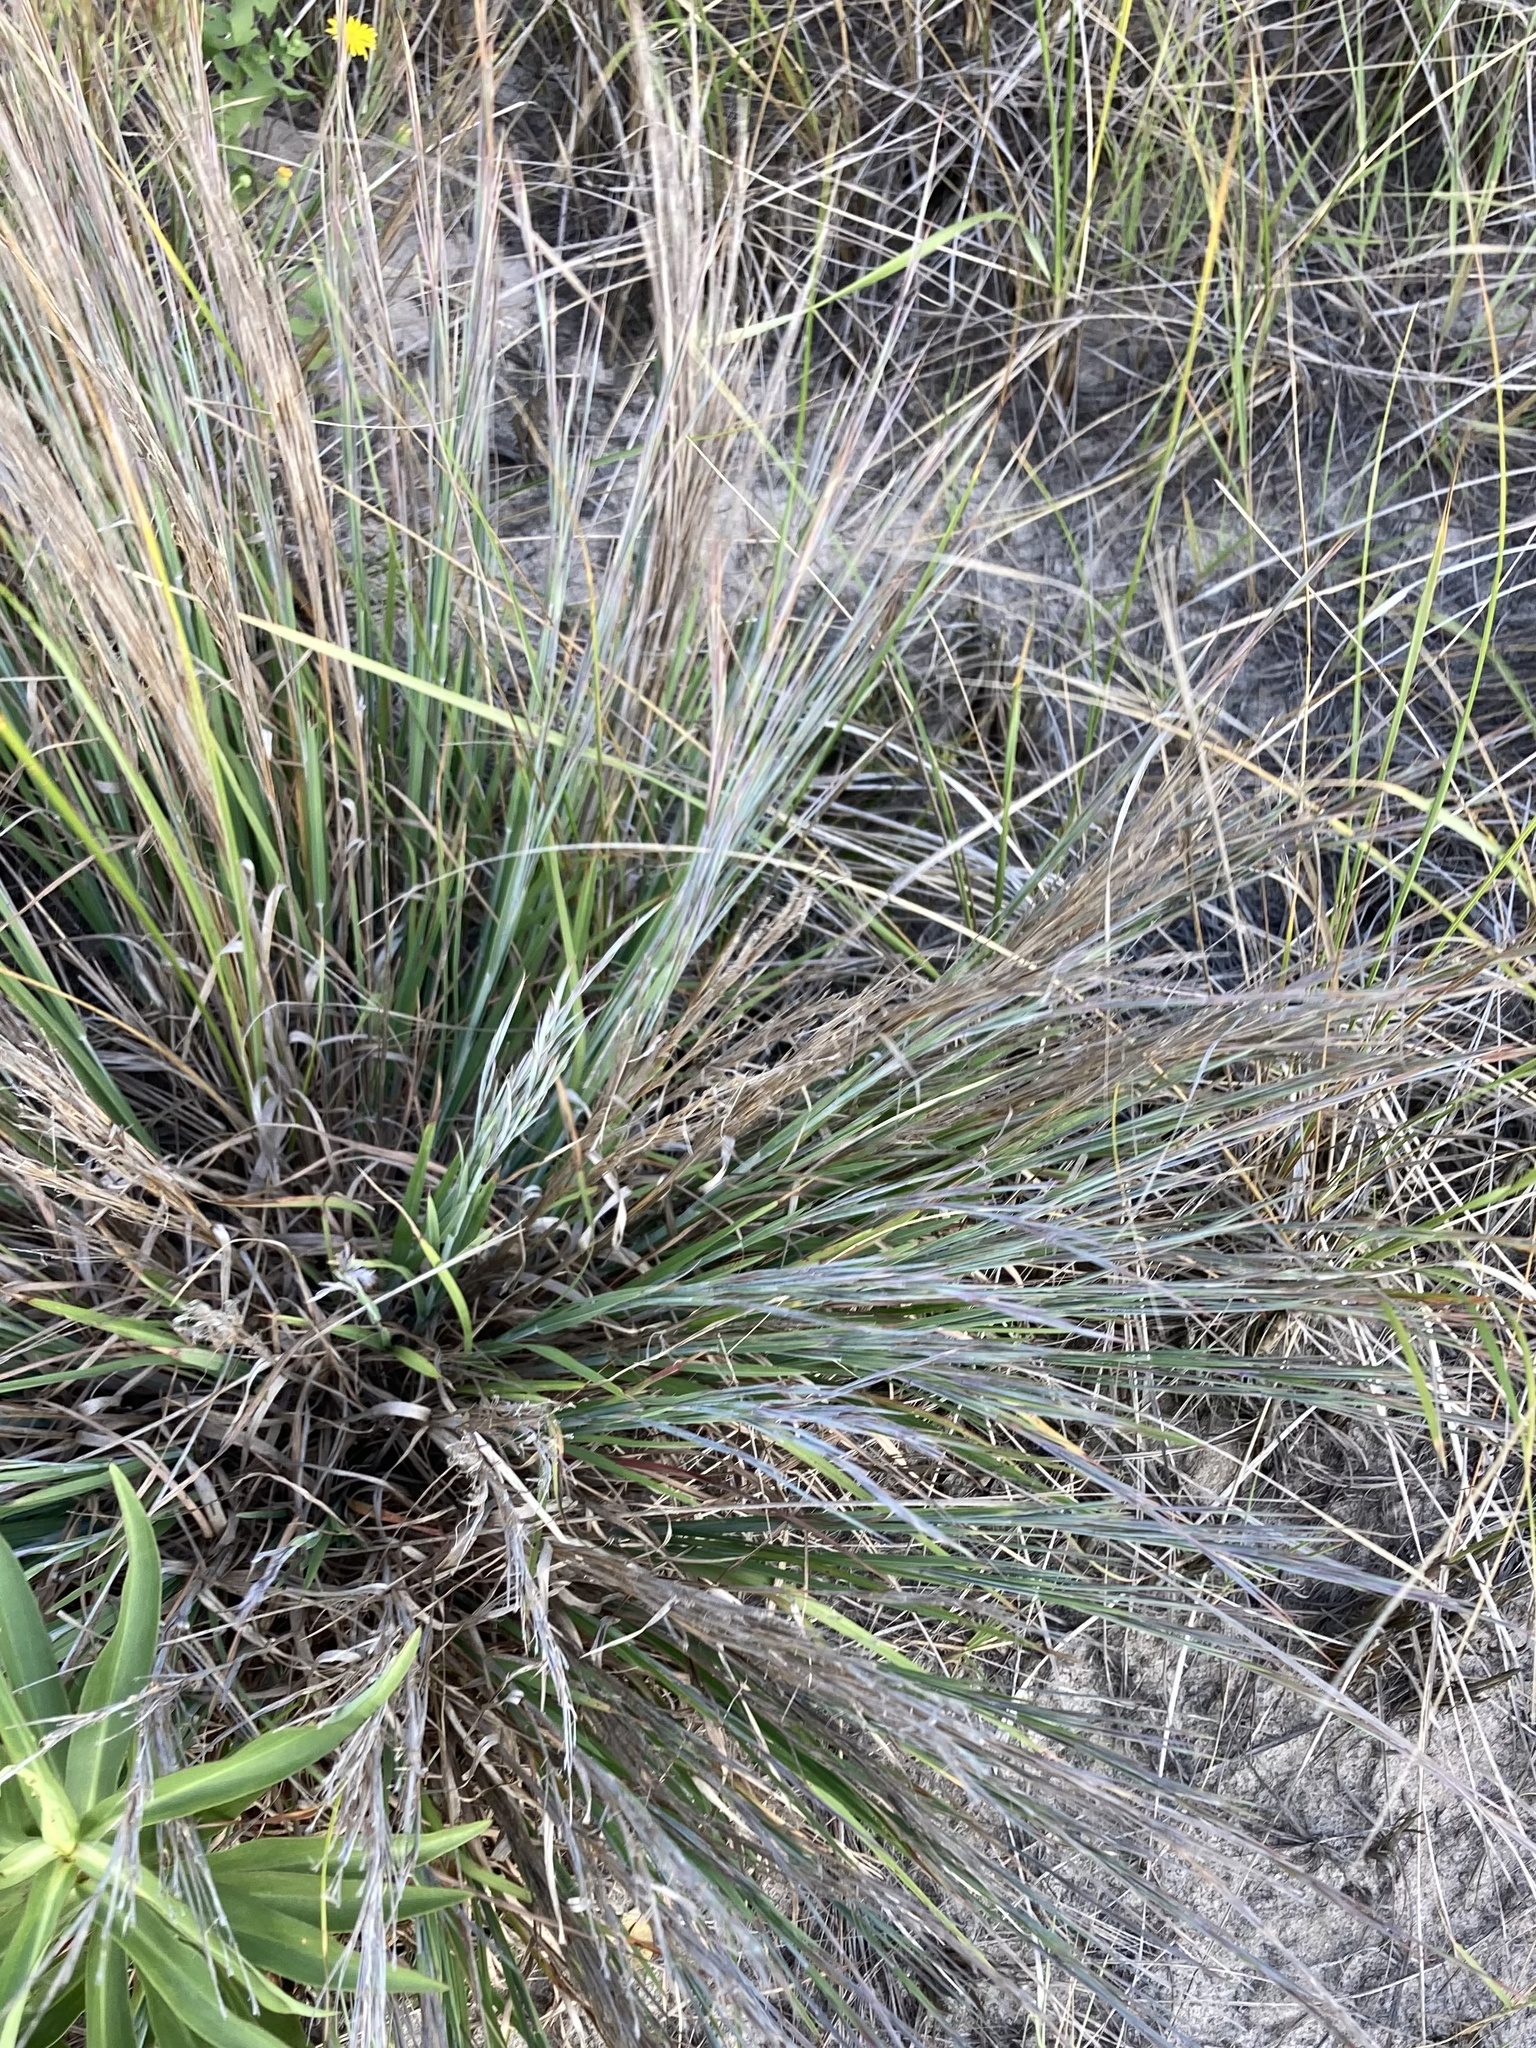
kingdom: Plantae
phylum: Tracheophyta
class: Liliopsida
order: Poales
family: Poaceae
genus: Schizachyrium
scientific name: Schizachyrium scoparium
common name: Little bluestem
